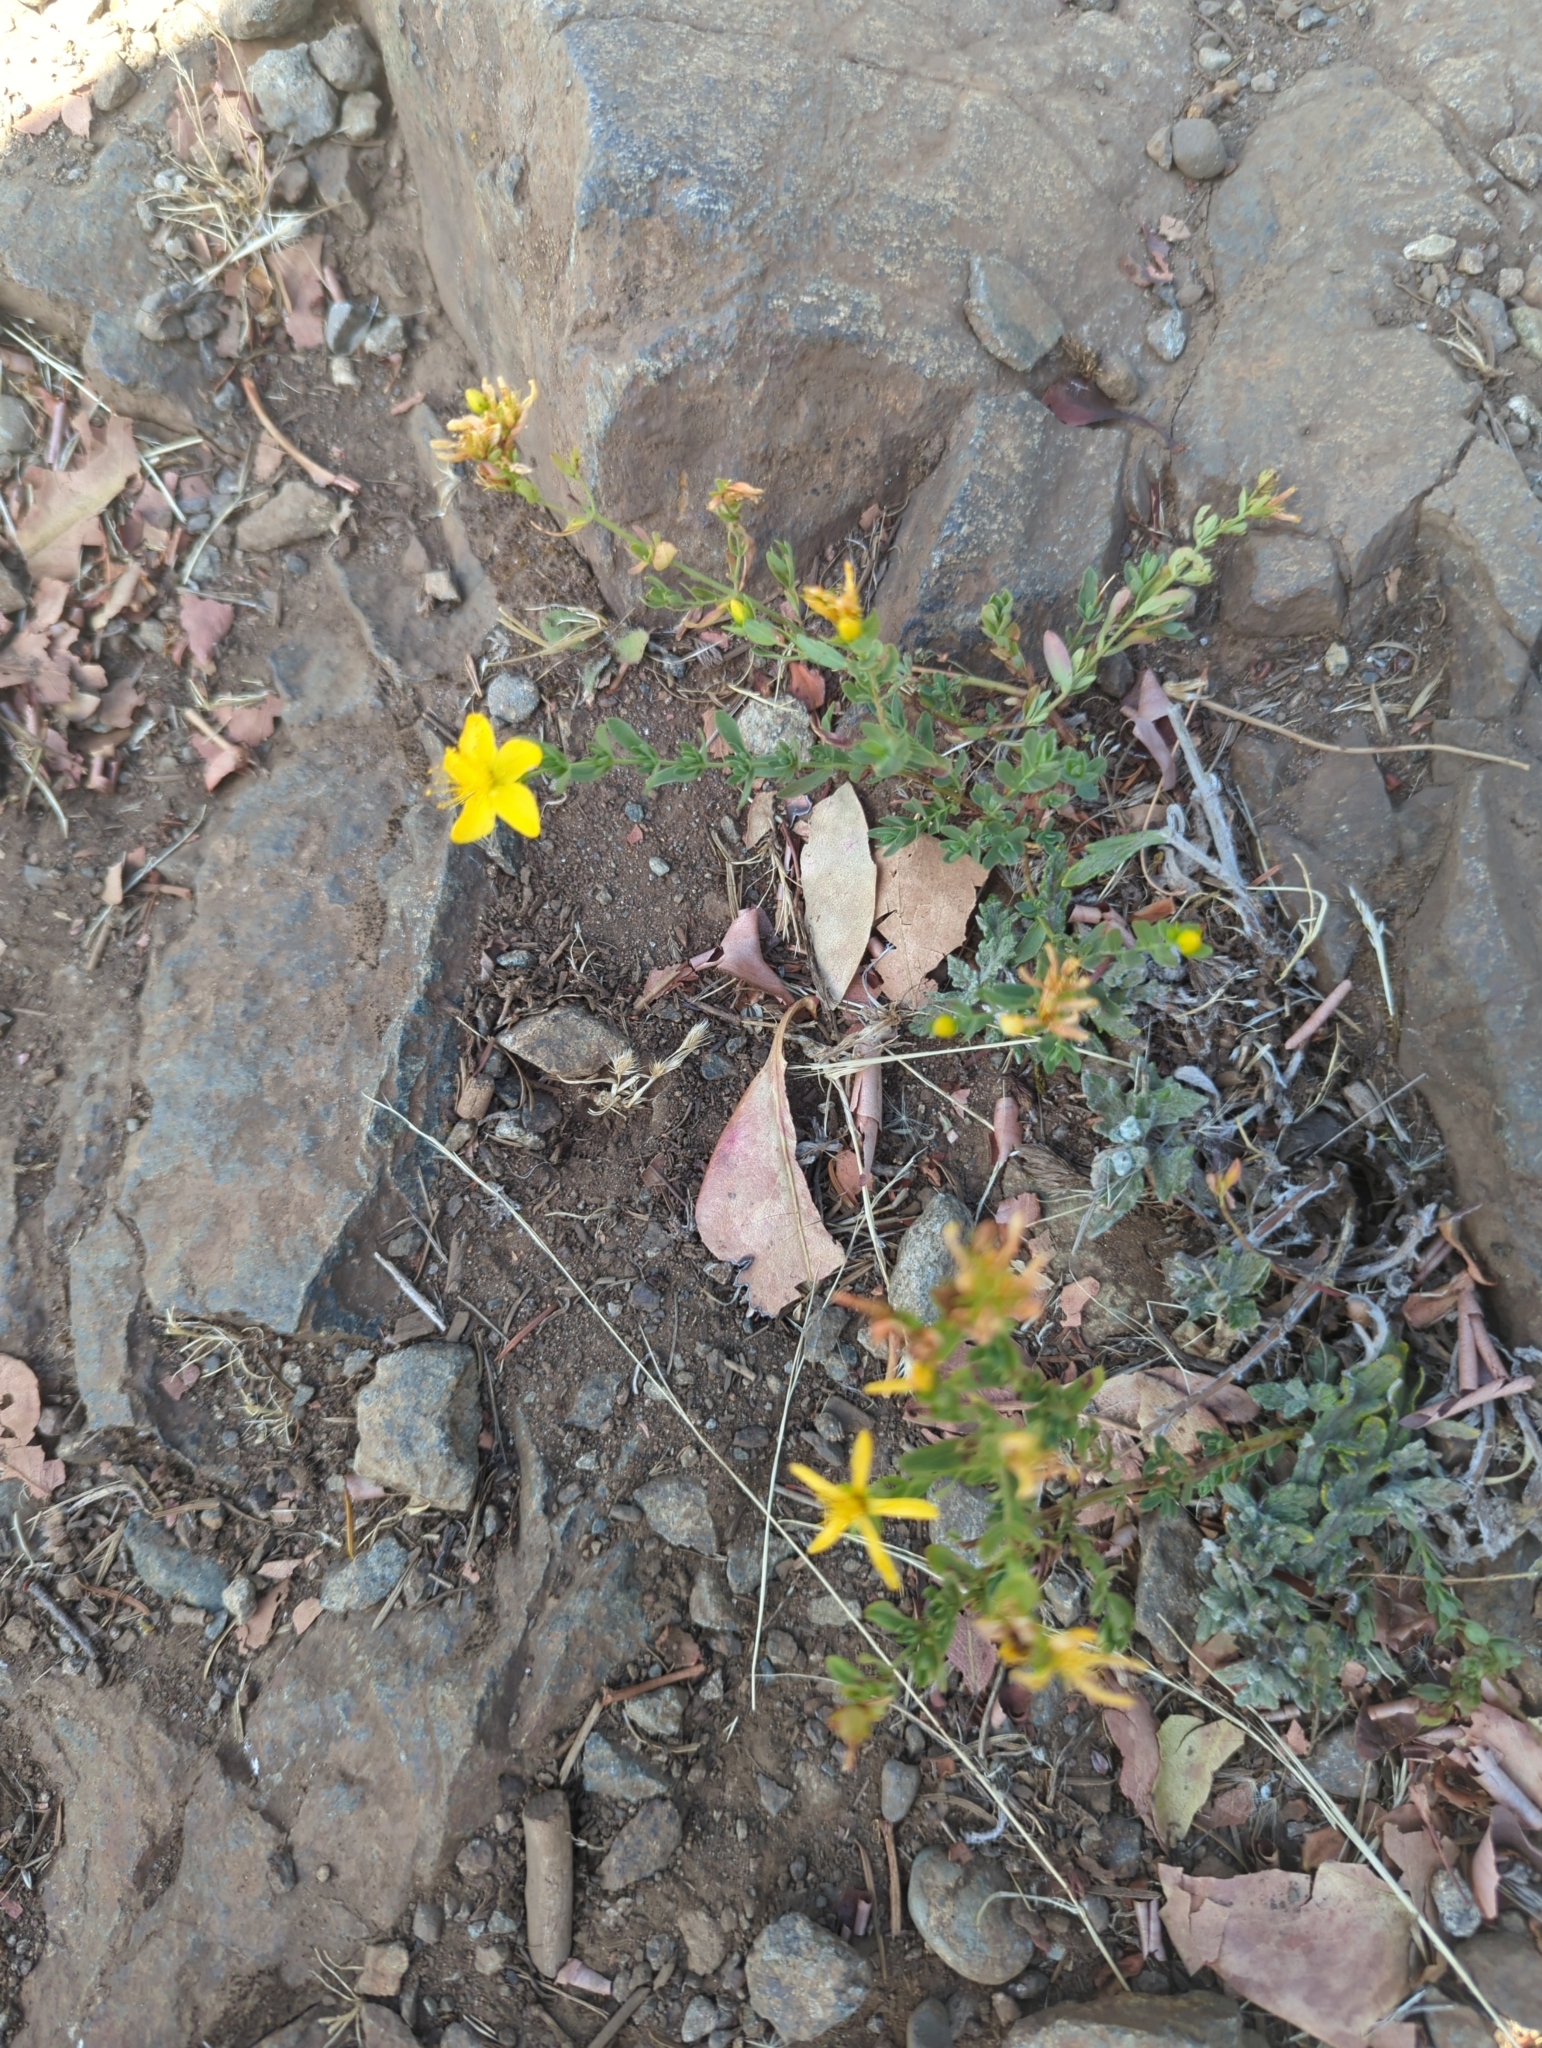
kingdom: Plantae
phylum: Tracheophyta
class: Magnoliopsida
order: Malpighiales
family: Hypericaceae
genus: Hypericum
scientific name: Hypericum perforatum
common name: Common st. johnswort
